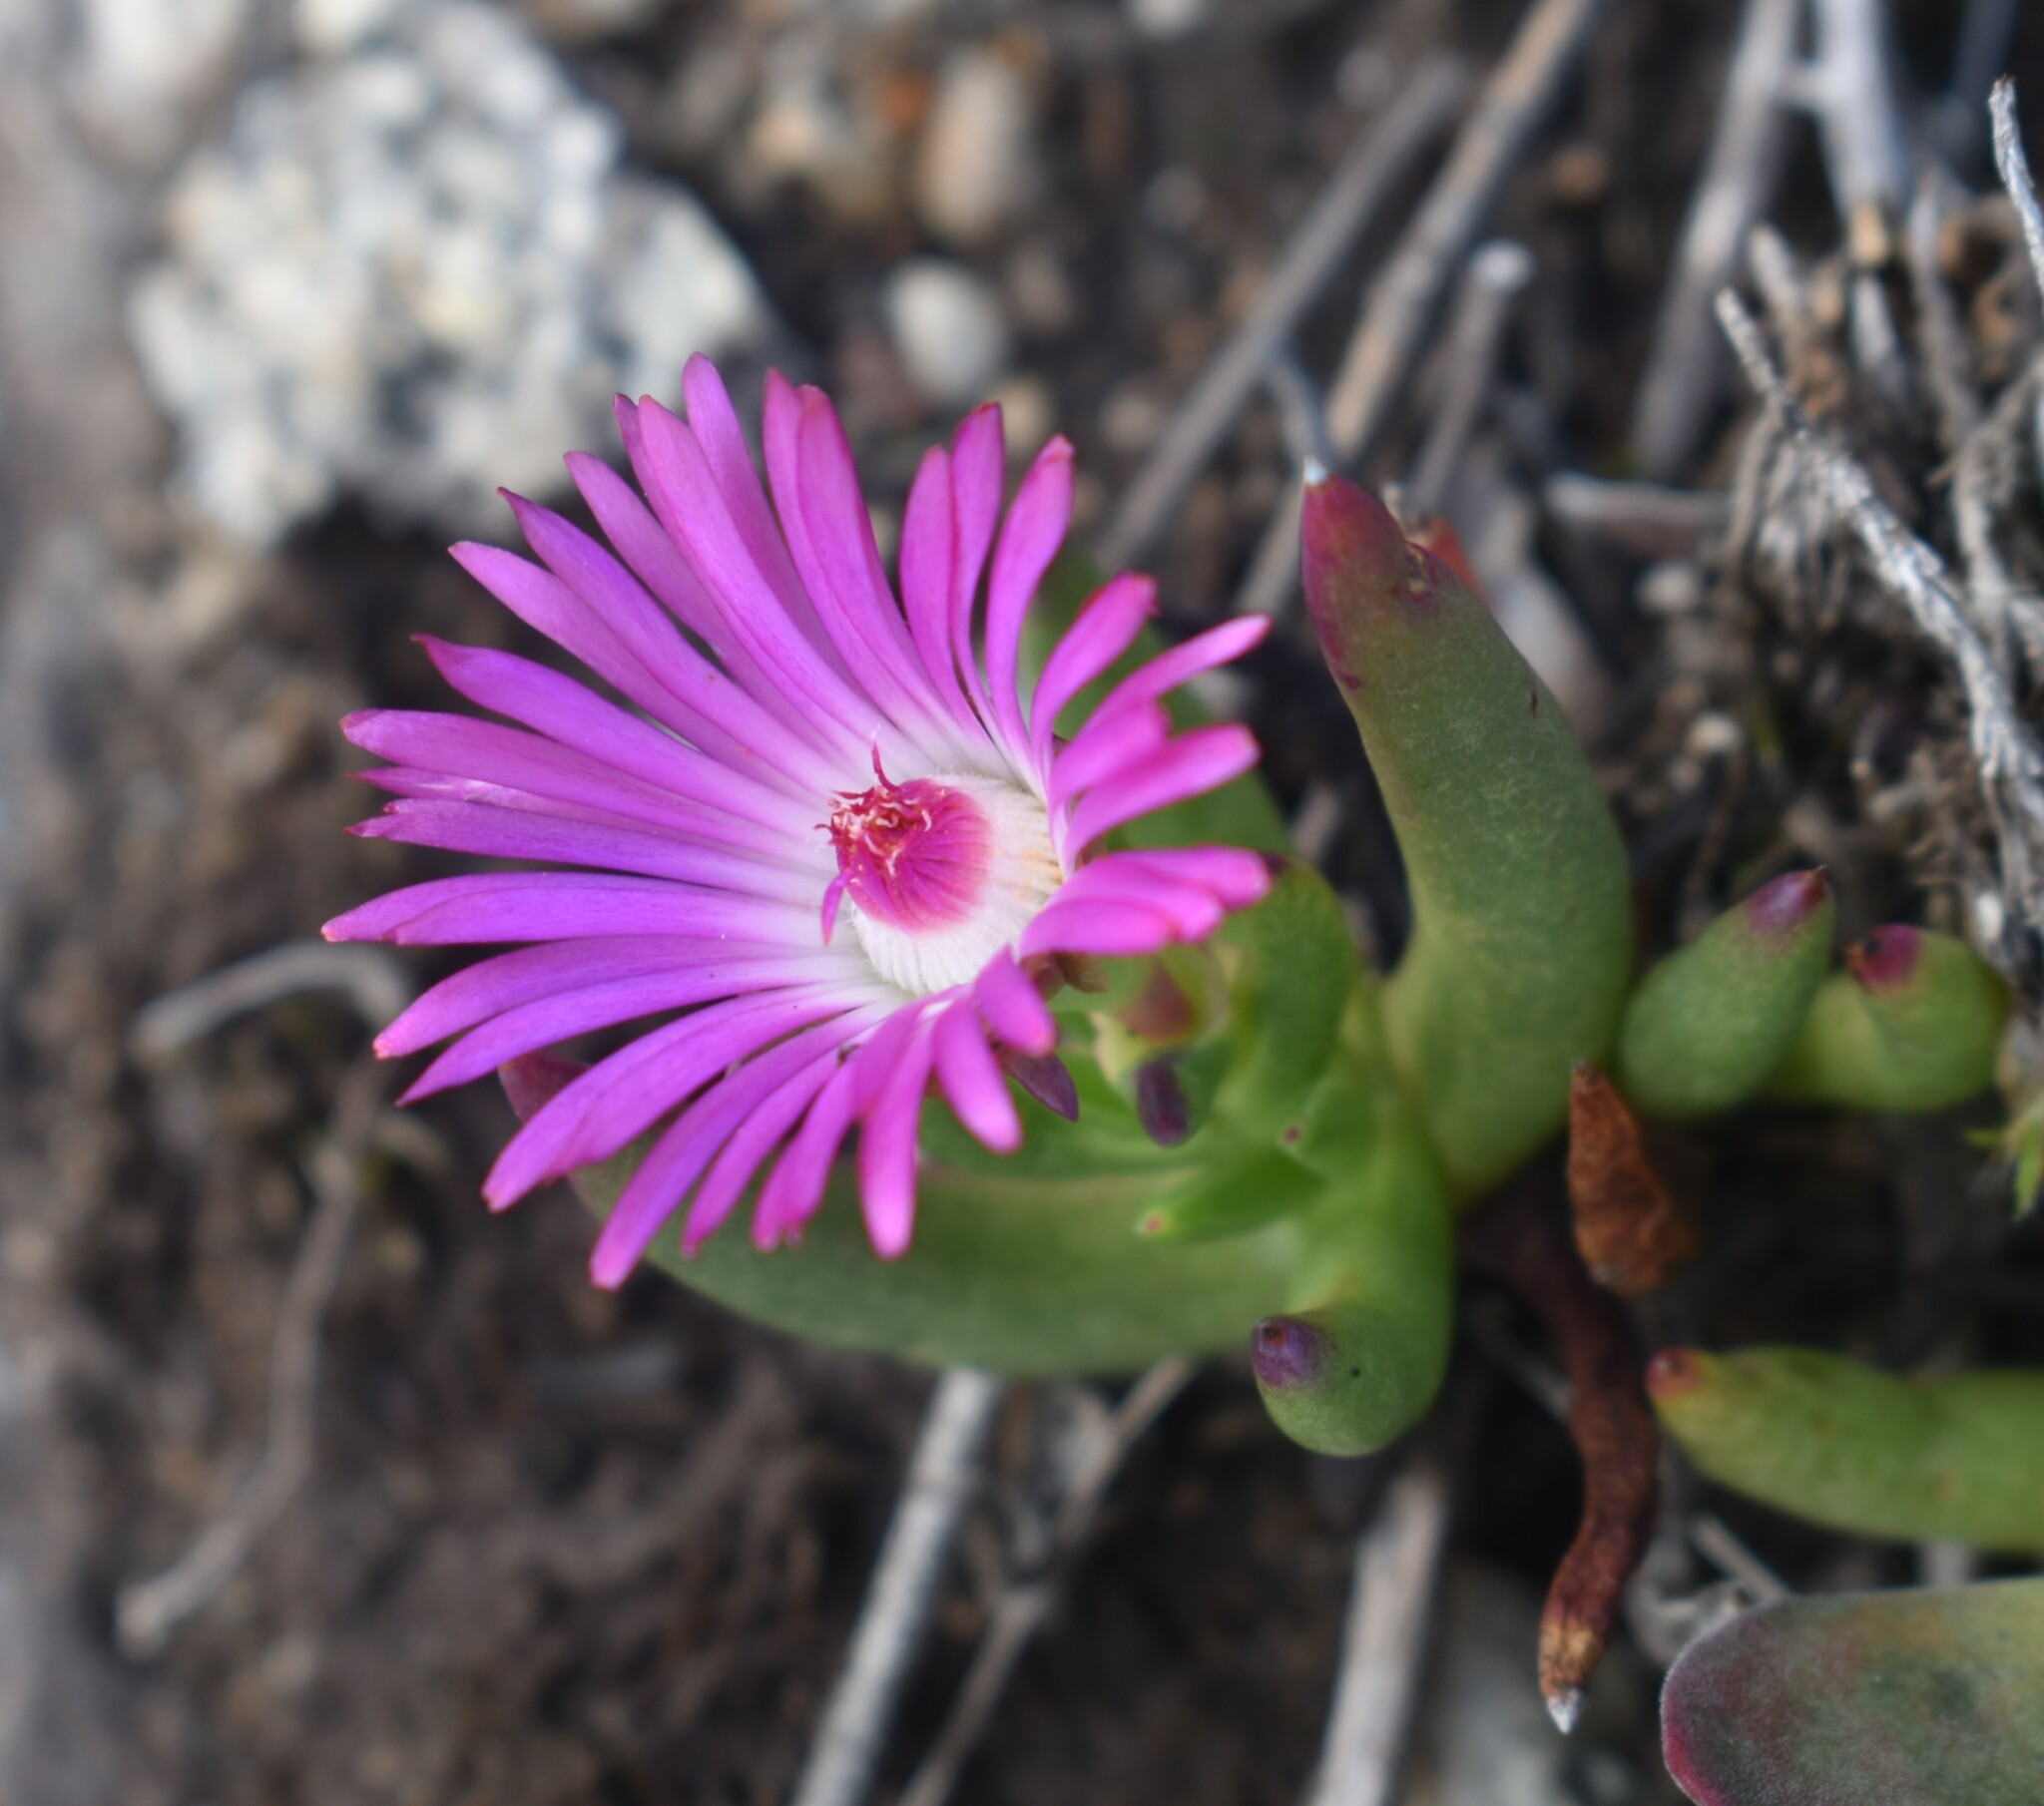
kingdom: Plantae
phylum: Tracheophyta
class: Magnoliopsida
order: Caryophyllales
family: Aizoaceae
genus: Lampranthus
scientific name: Lampranthus aduncus
